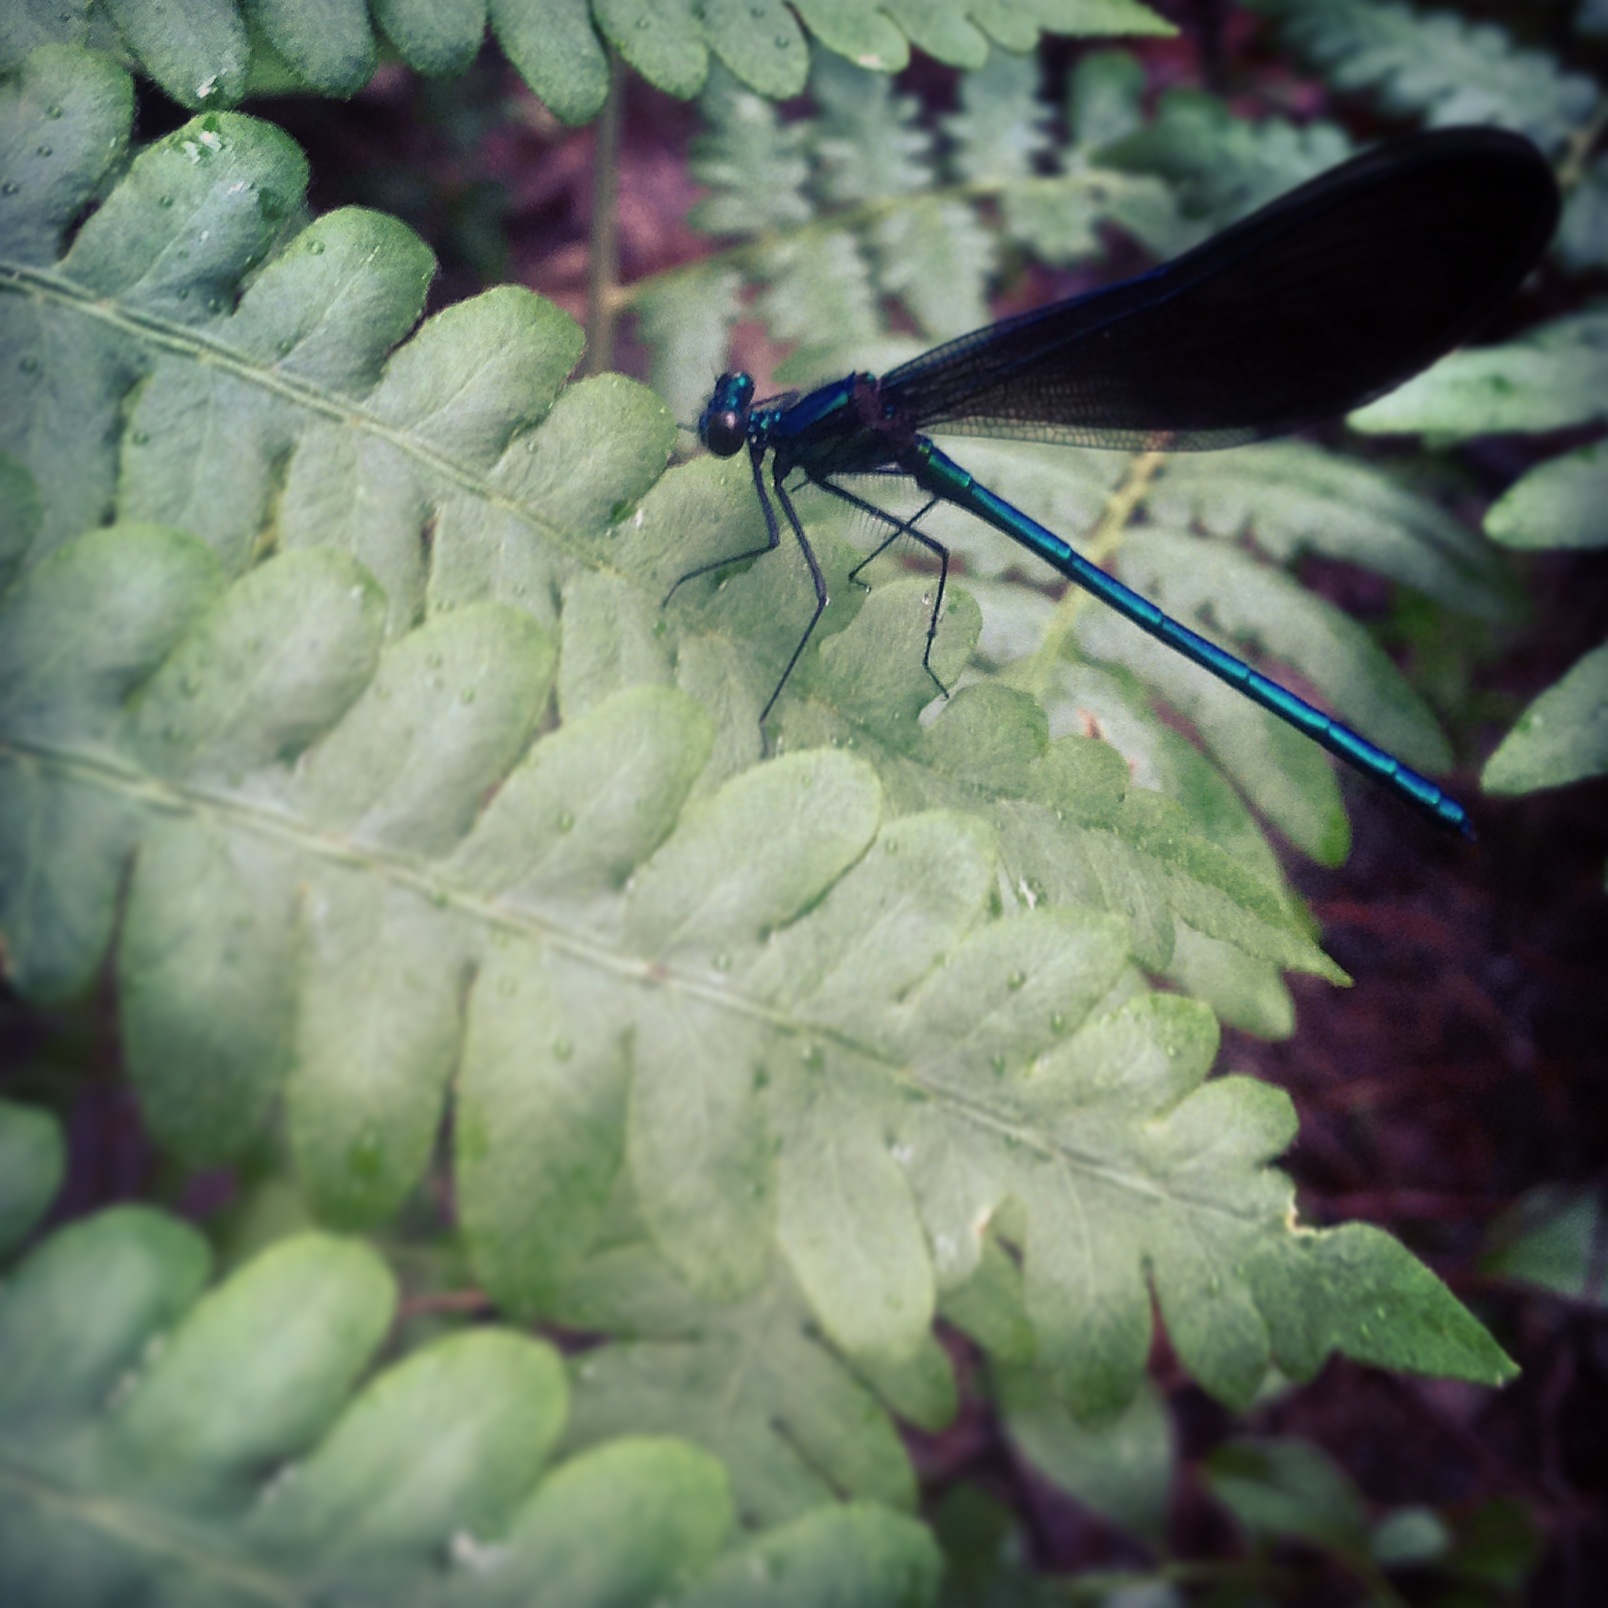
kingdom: Animalia
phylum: Arthropoda
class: Insecta
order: Odonata
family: Calopterygidae
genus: Calopteryx
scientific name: Calopteryx maculata
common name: Ebony jewelwing
